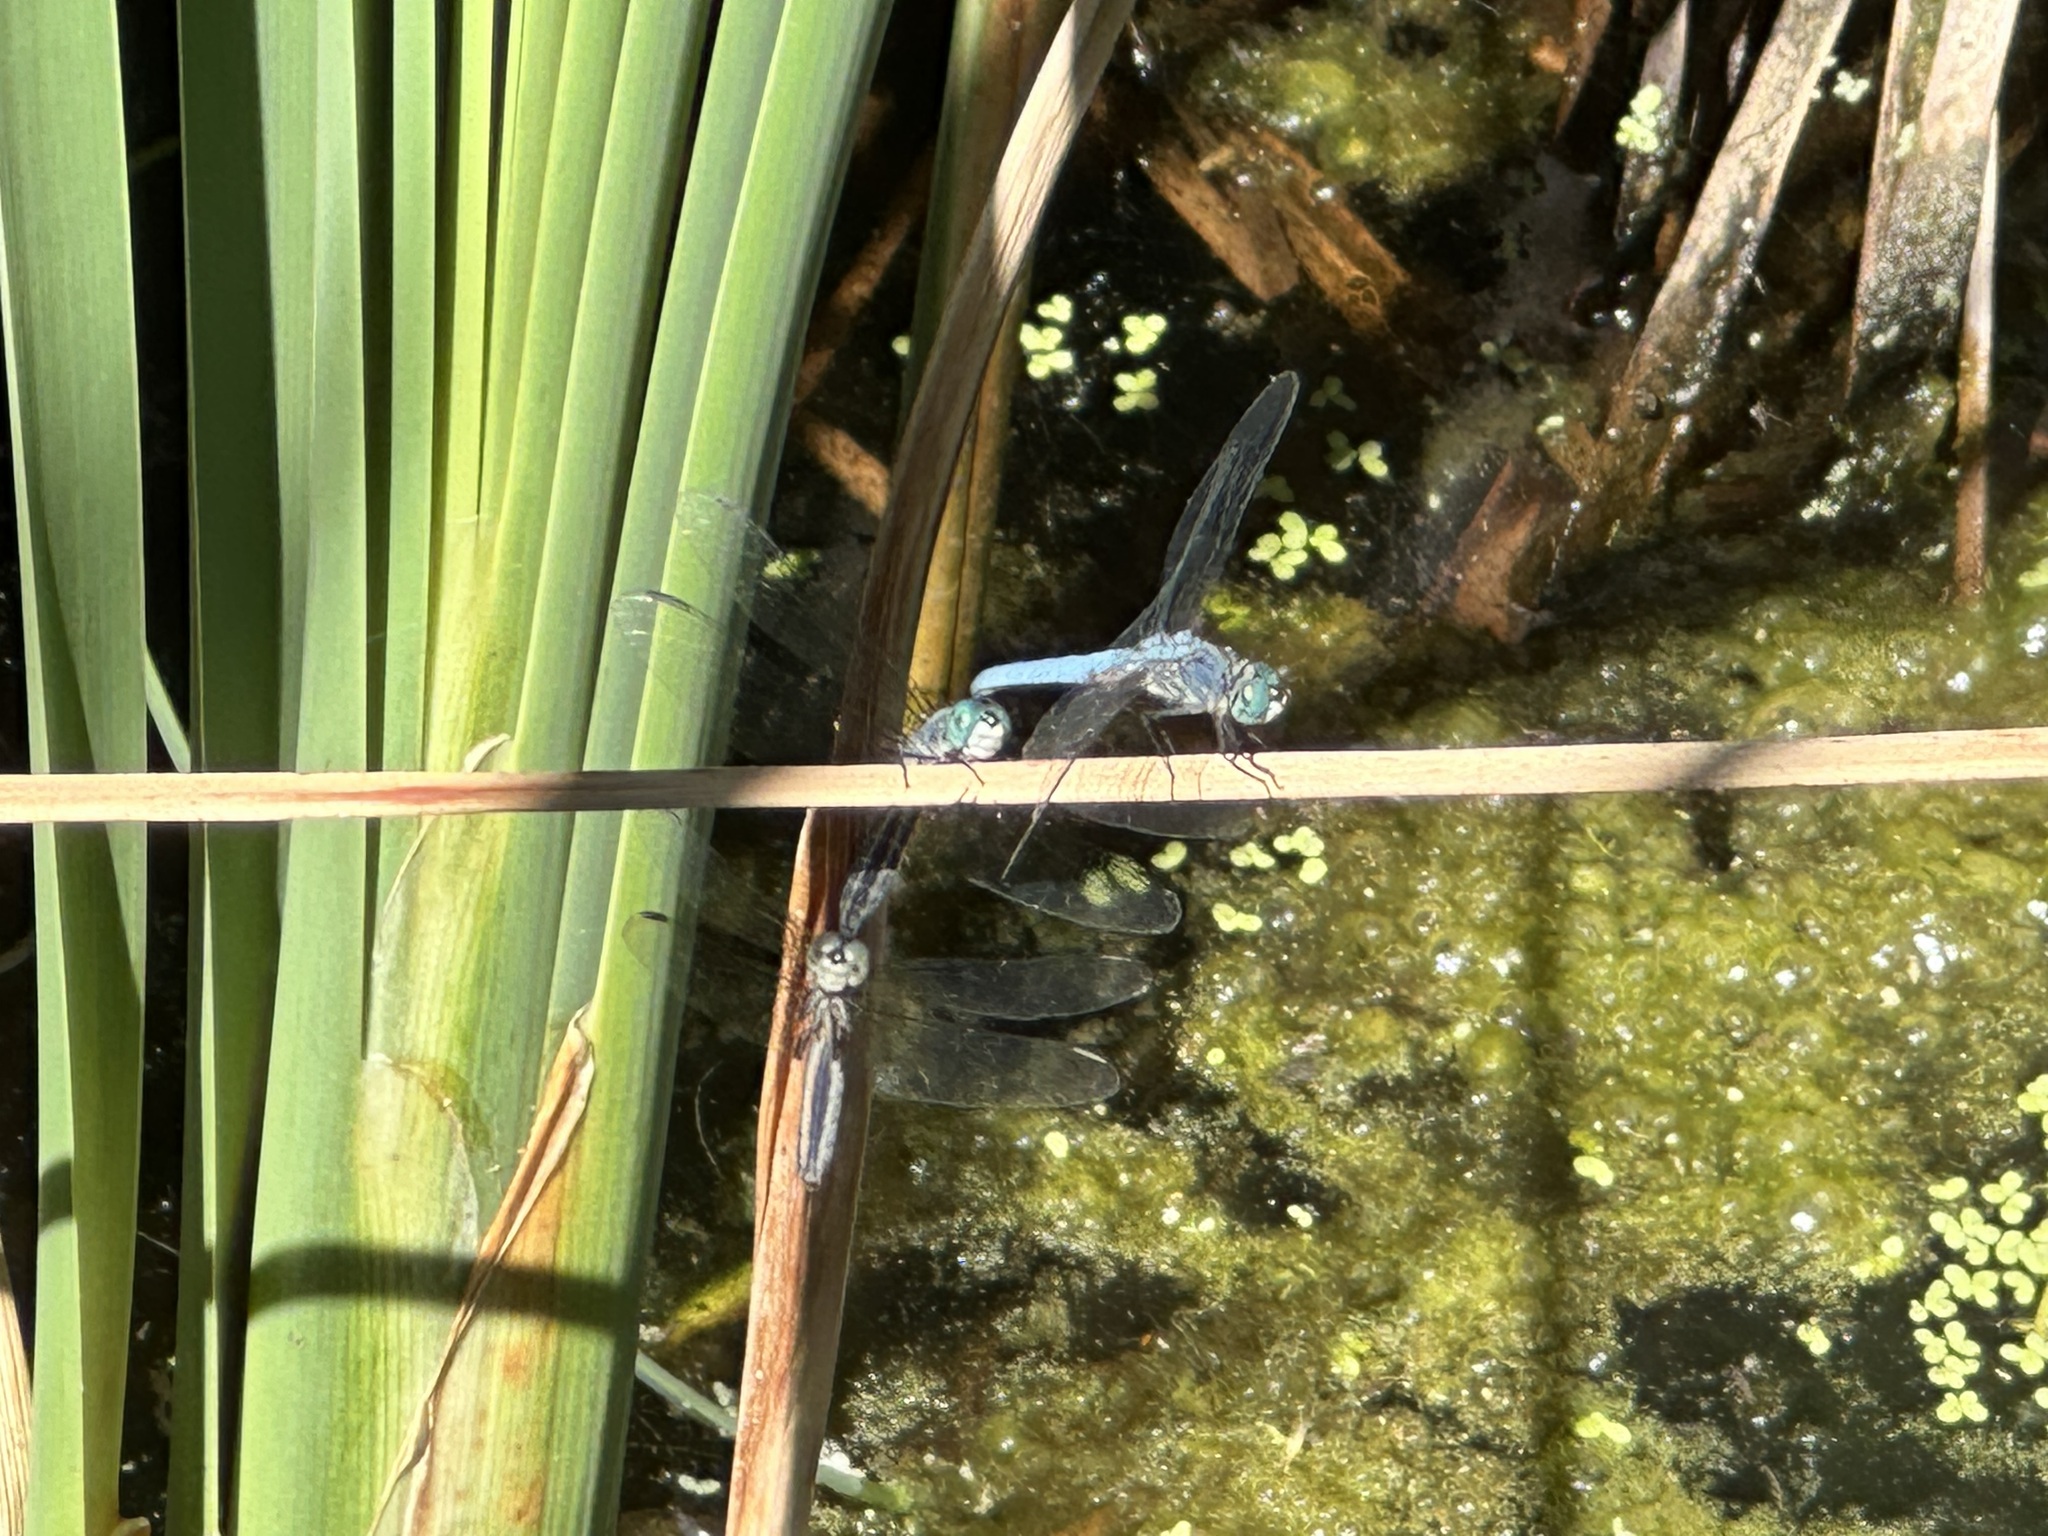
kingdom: Animalia
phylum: Arthropoda
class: Insecta
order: Odonata
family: Libellulidae
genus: Pachydiplax
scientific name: Pachydiplax longipennis
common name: Blue dasher
